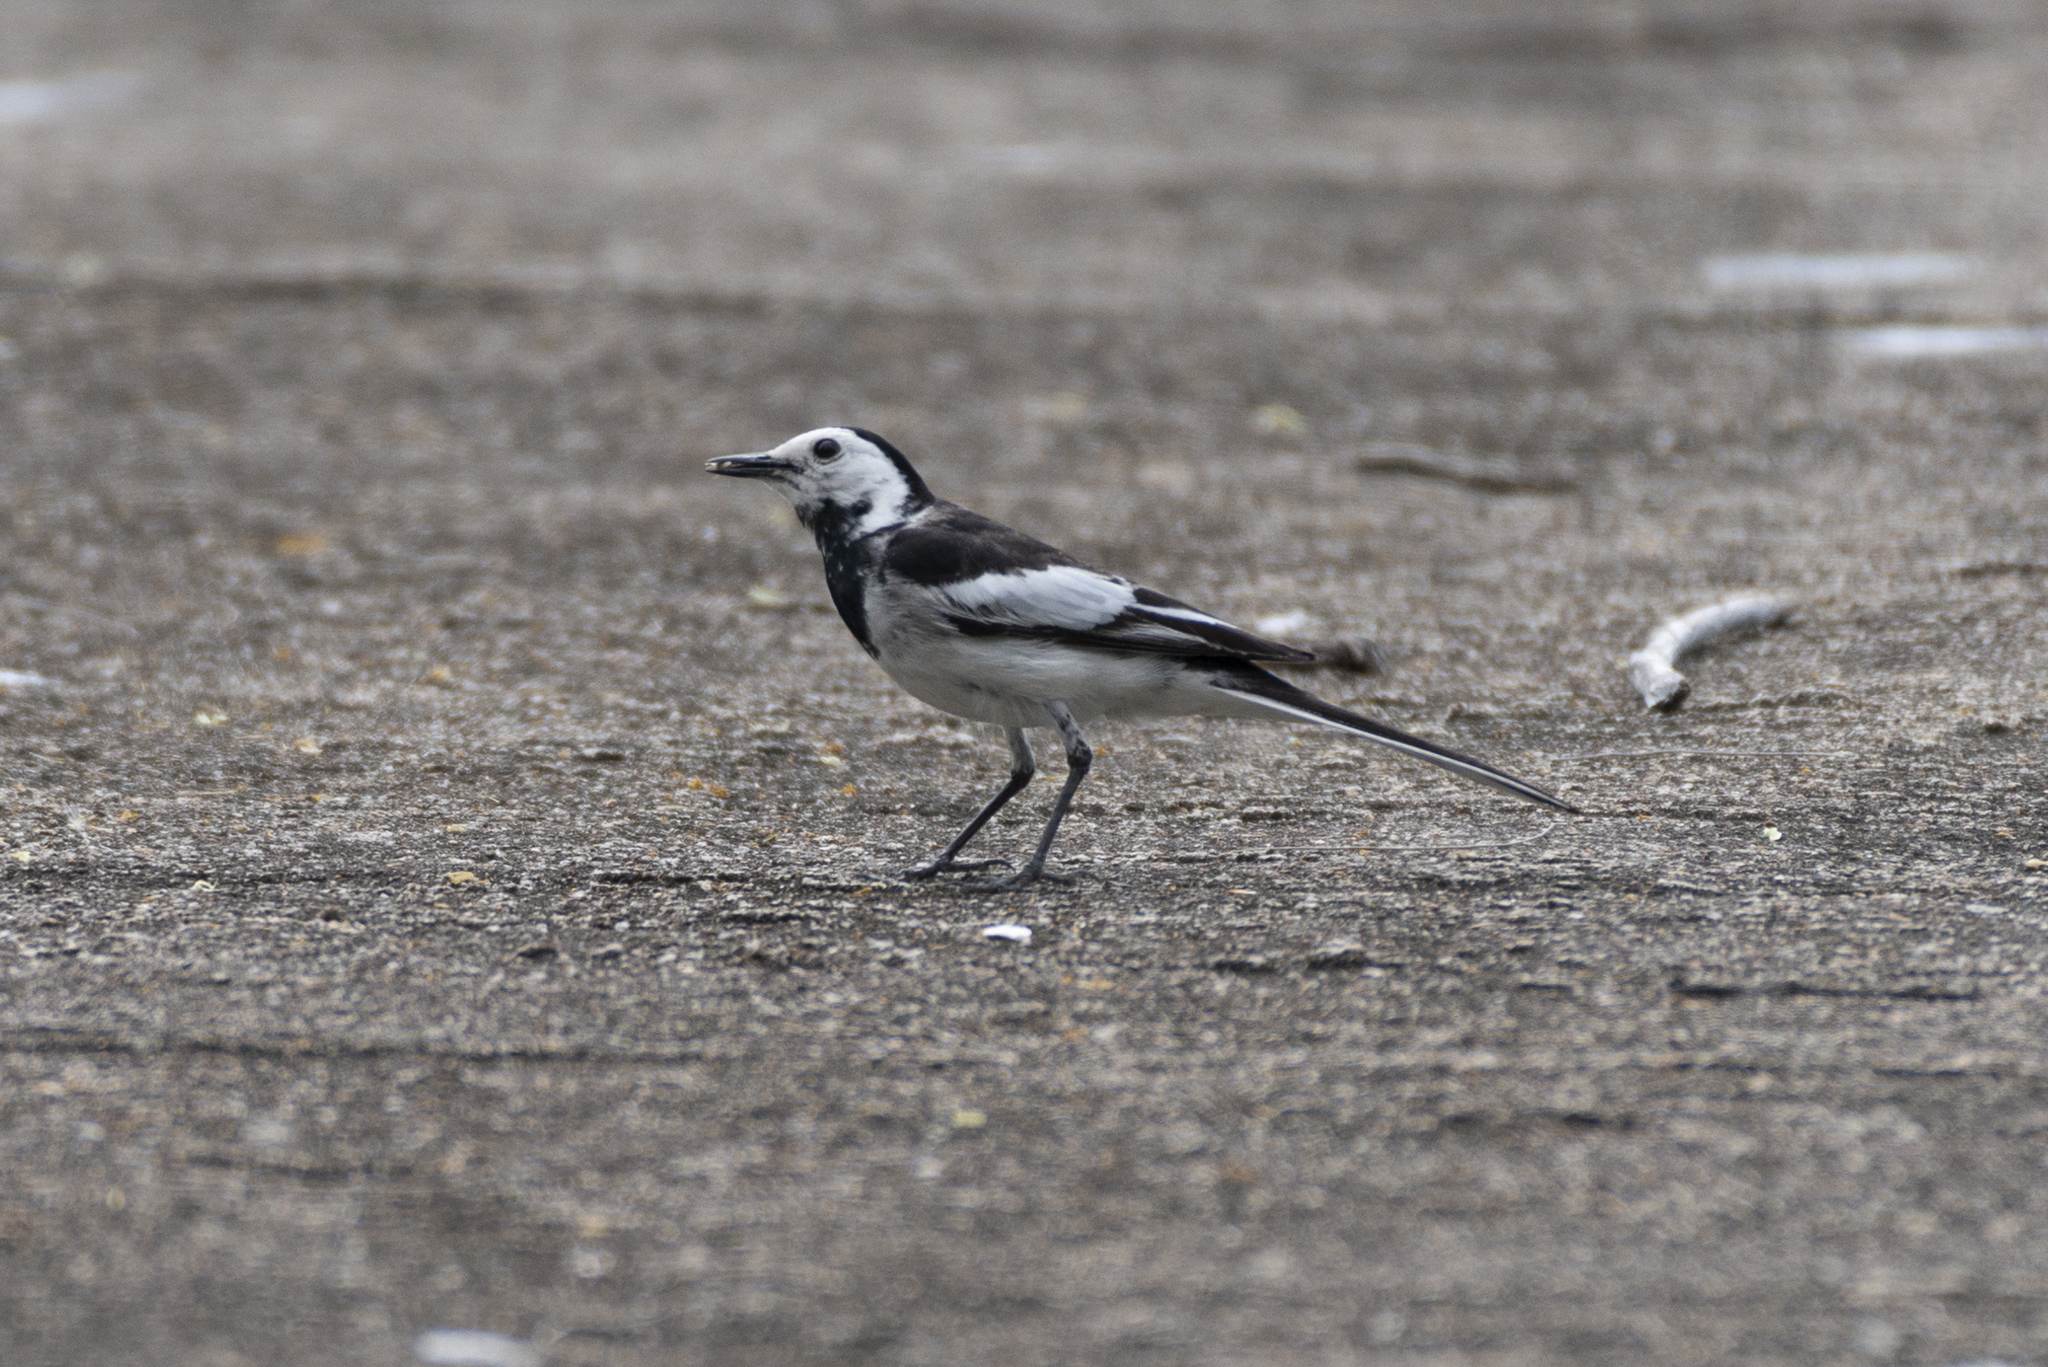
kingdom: Animalia
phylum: Chordata
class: Aves
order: Passeriformes
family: Motacillidae
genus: Motacilla
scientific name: Motacilla alba
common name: White wagtail
